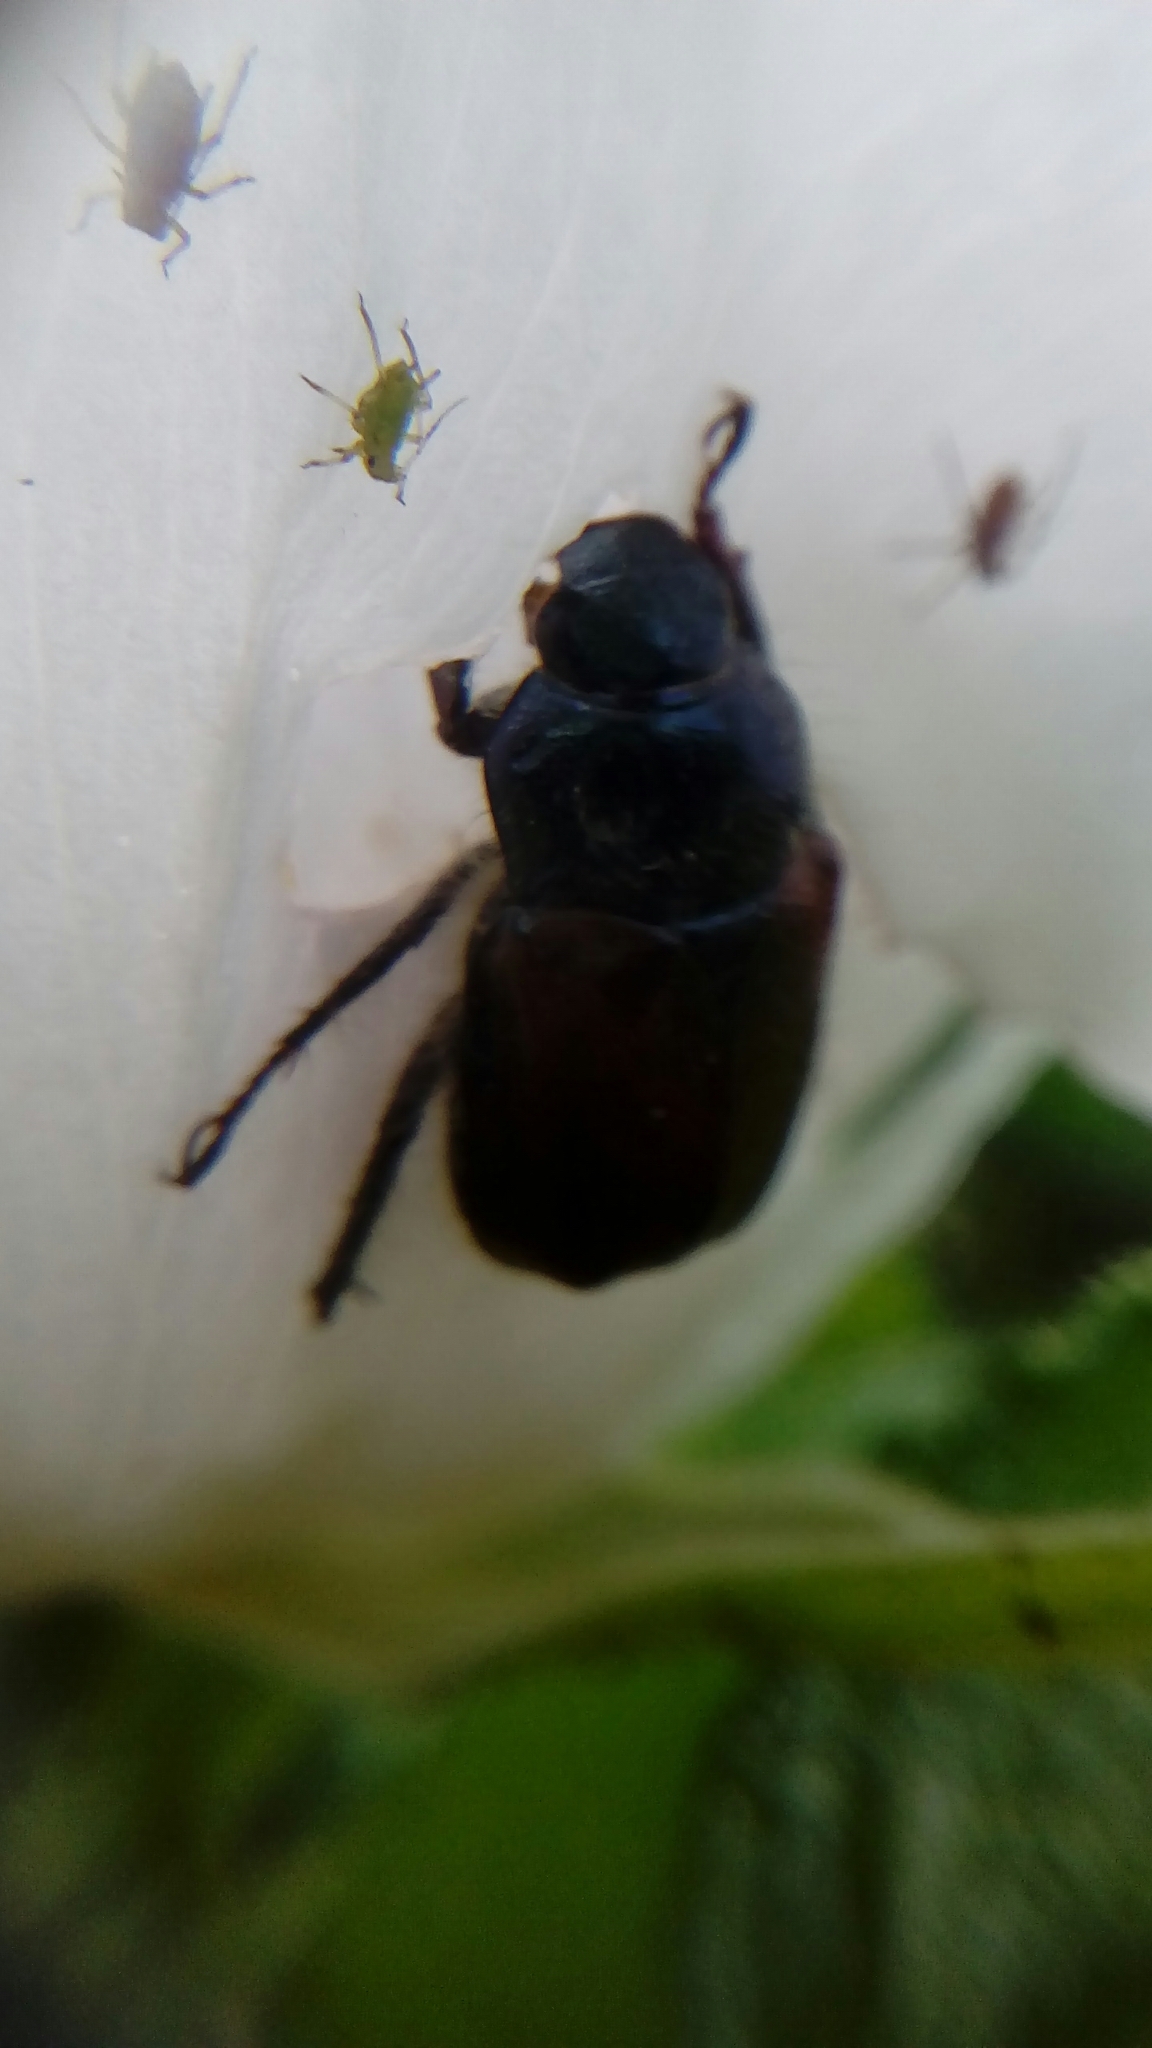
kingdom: Animalia
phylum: Arthropoda
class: Insecta
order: Coleoptera
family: Scarabaeidae
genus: Phyllopertha
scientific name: Phyllopertha horticola
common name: Garden chafer
